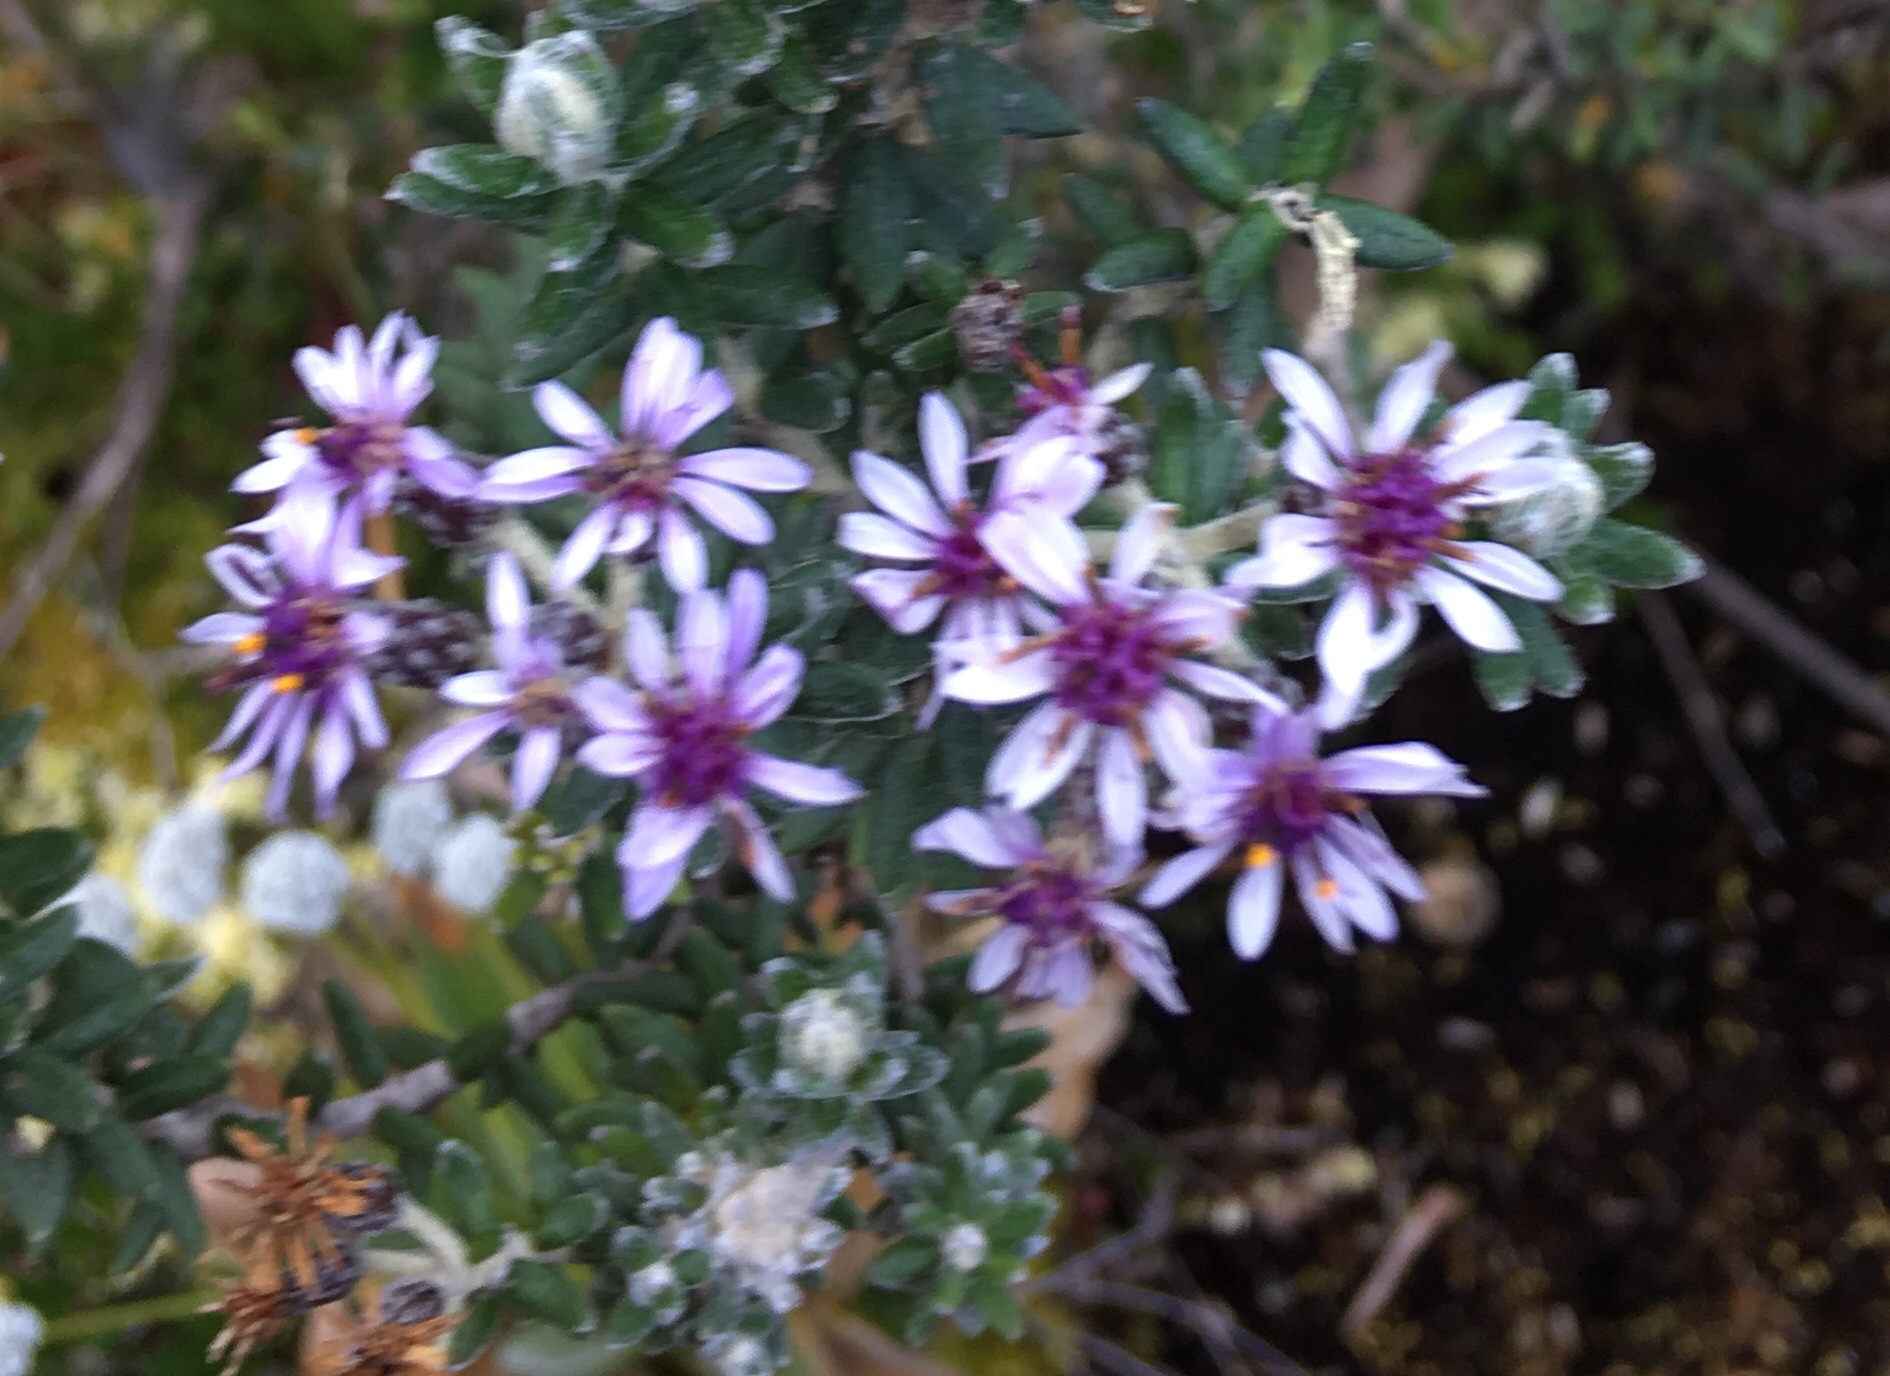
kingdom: Plantae
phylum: Tracheophyta
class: Magnoliopsida
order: Asterales
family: Asteraceae
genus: Linochilus
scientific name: Linochilus phylicoides
